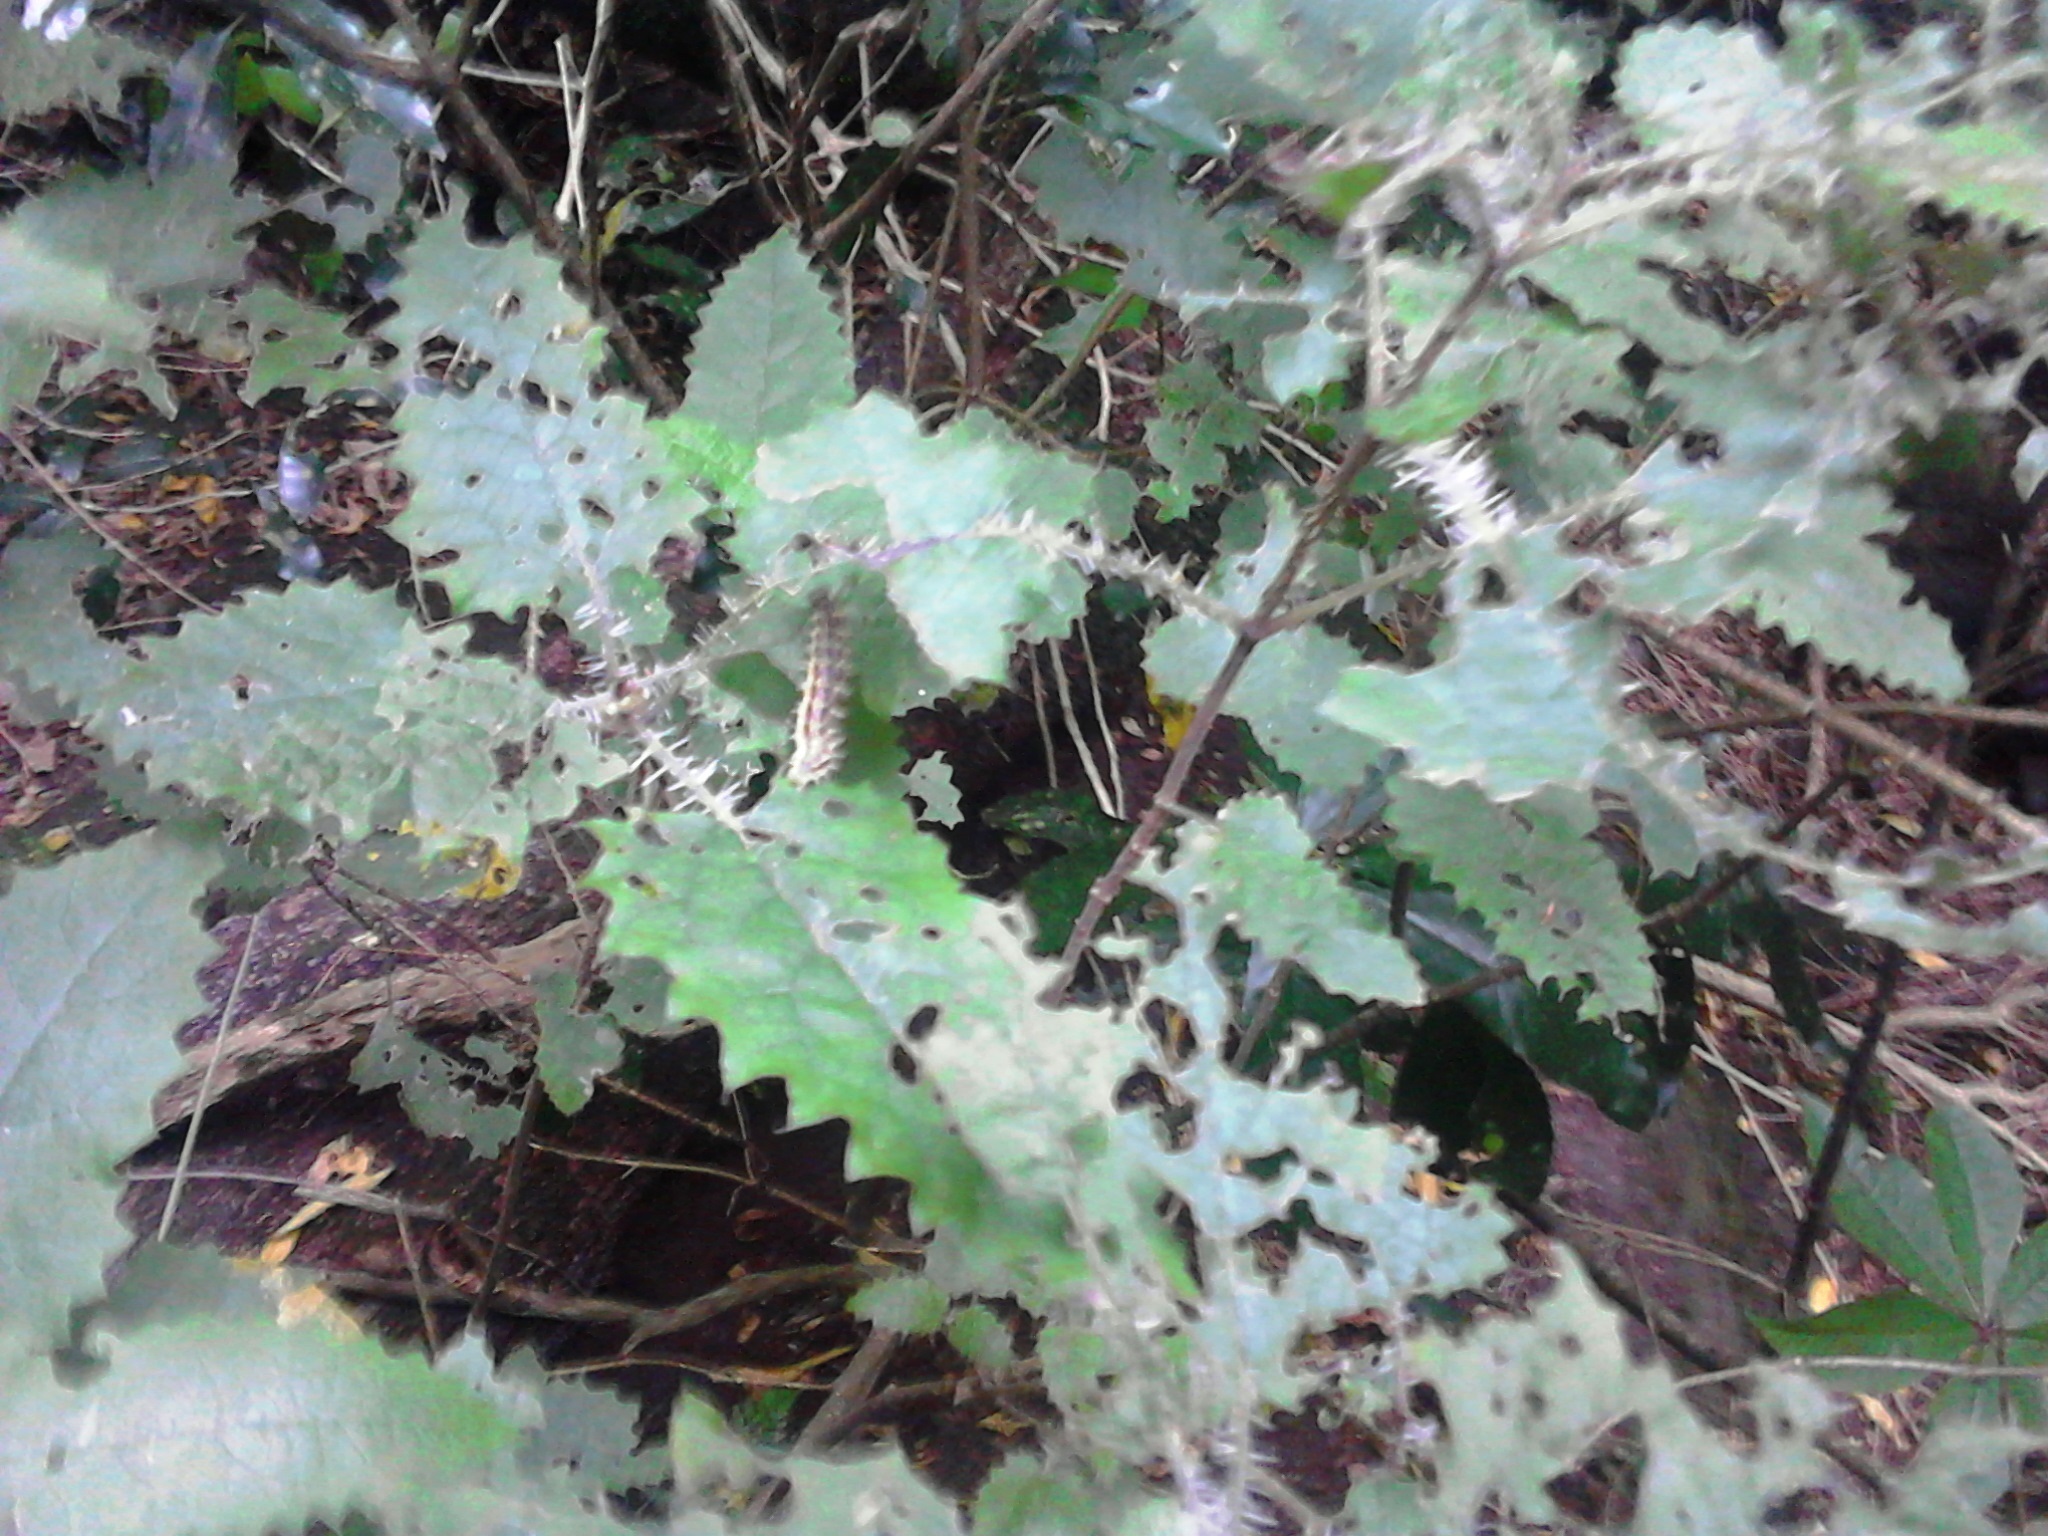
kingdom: Plantae
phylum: Tracheophyta
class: Magnoliopsida
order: Rosales
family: Urticaceae
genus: Urtica
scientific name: Urtica ferox
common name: Tree nettle
